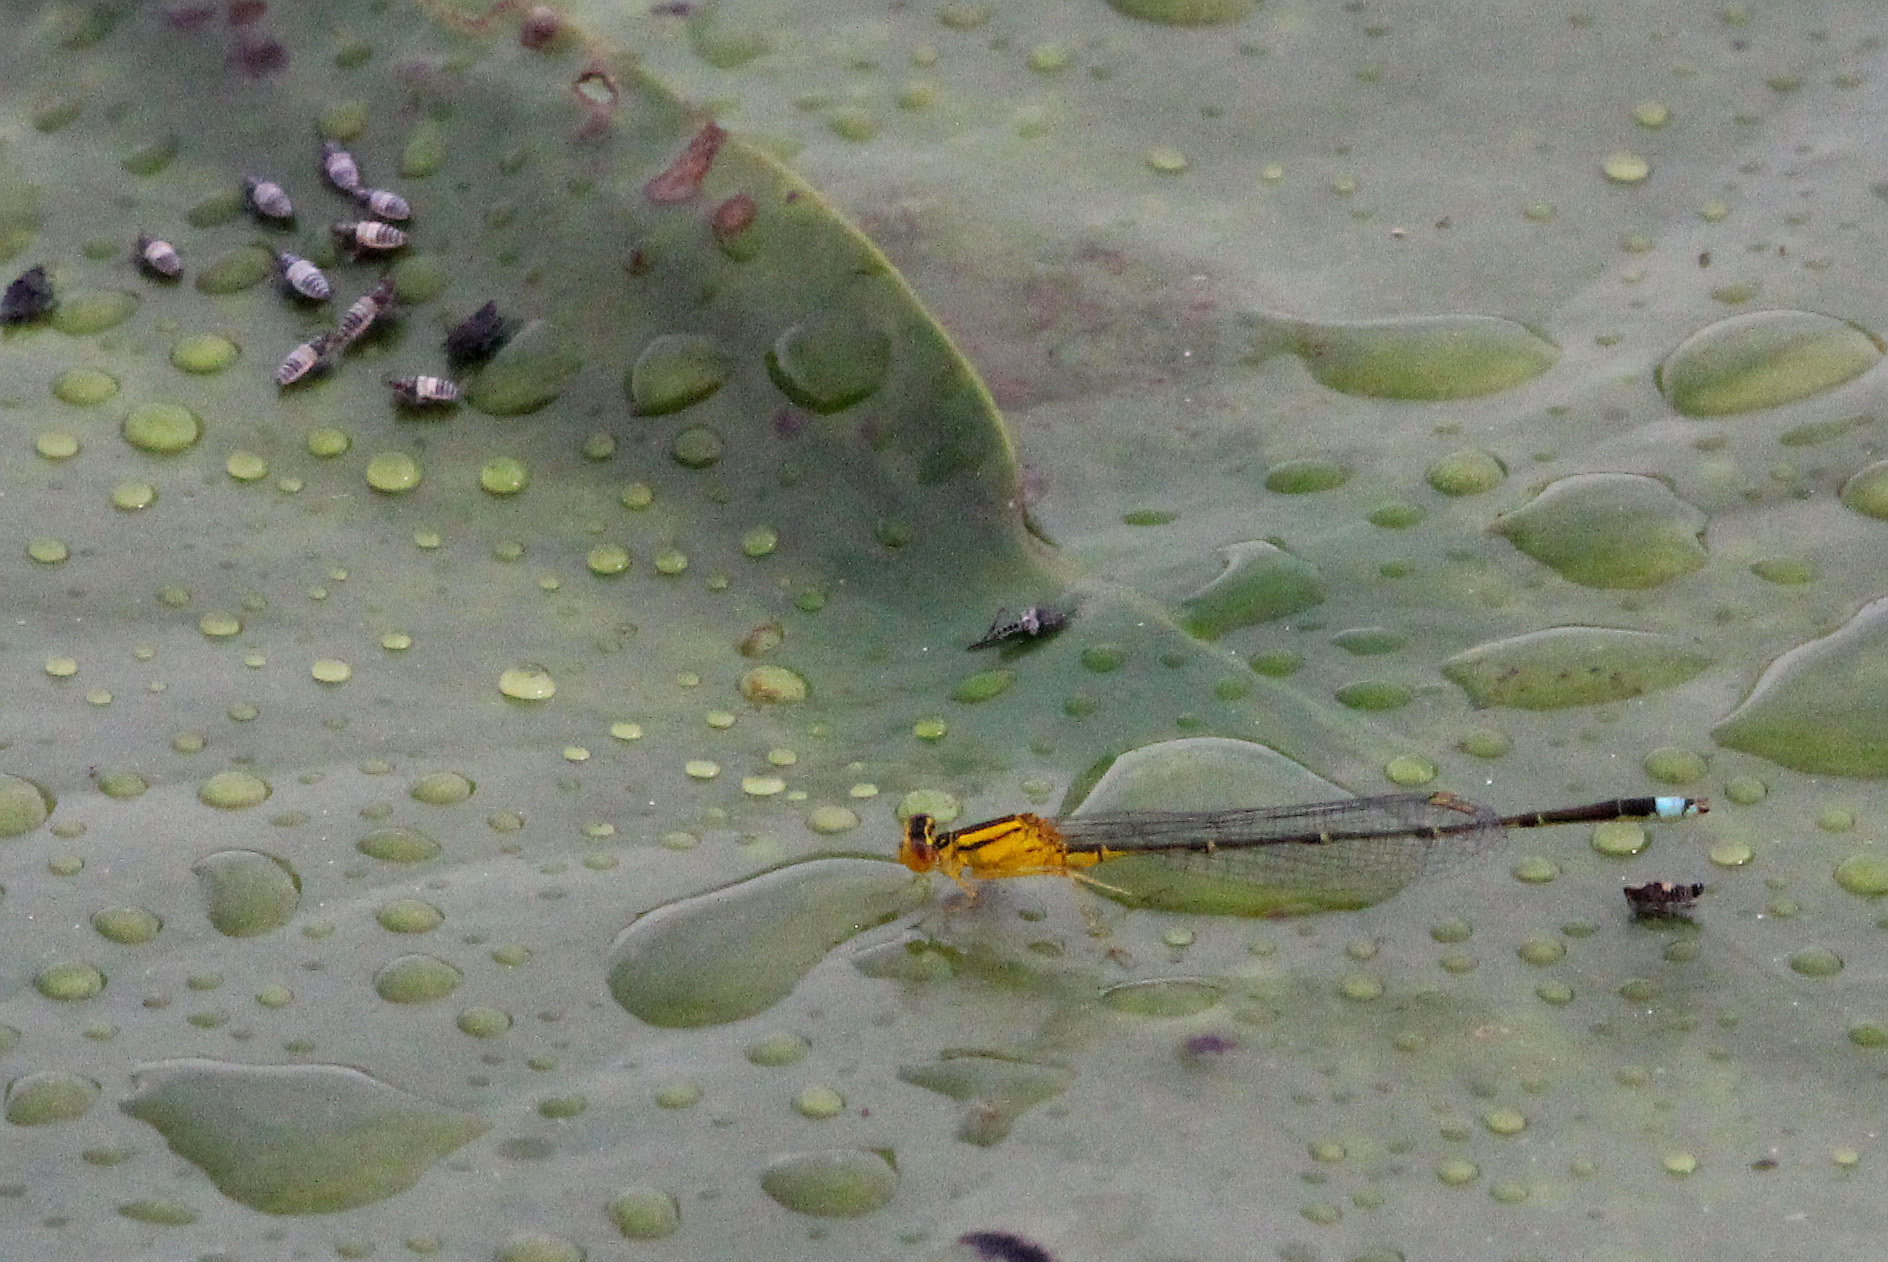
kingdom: Animalia
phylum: Arthropoda
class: Insecta
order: Odonata
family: Coenagrionidae
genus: Enallagma
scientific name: Enallagma vesperum
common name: Vesper bluet
